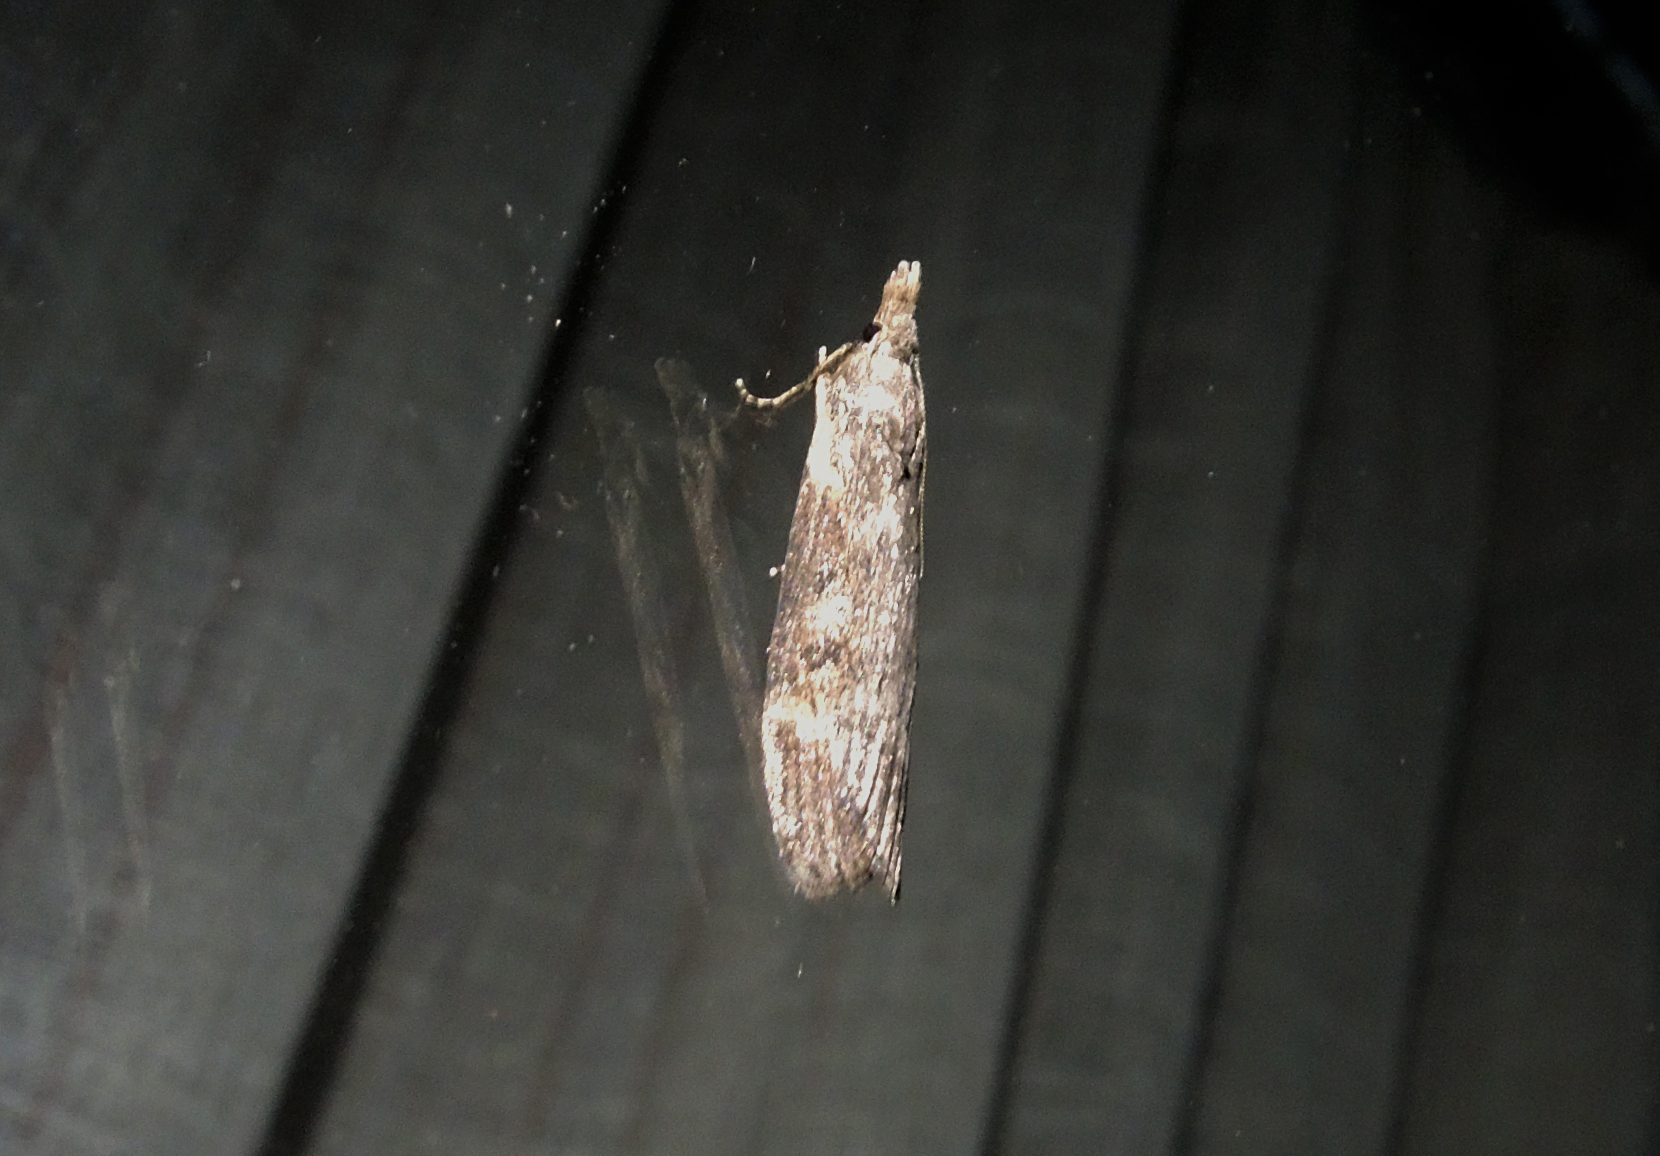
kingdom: Animalia
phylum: Arthropoda
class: Insecta
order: Lepidoptera
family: Pyralidae
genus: Lamoria
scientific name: Lamoria anella
